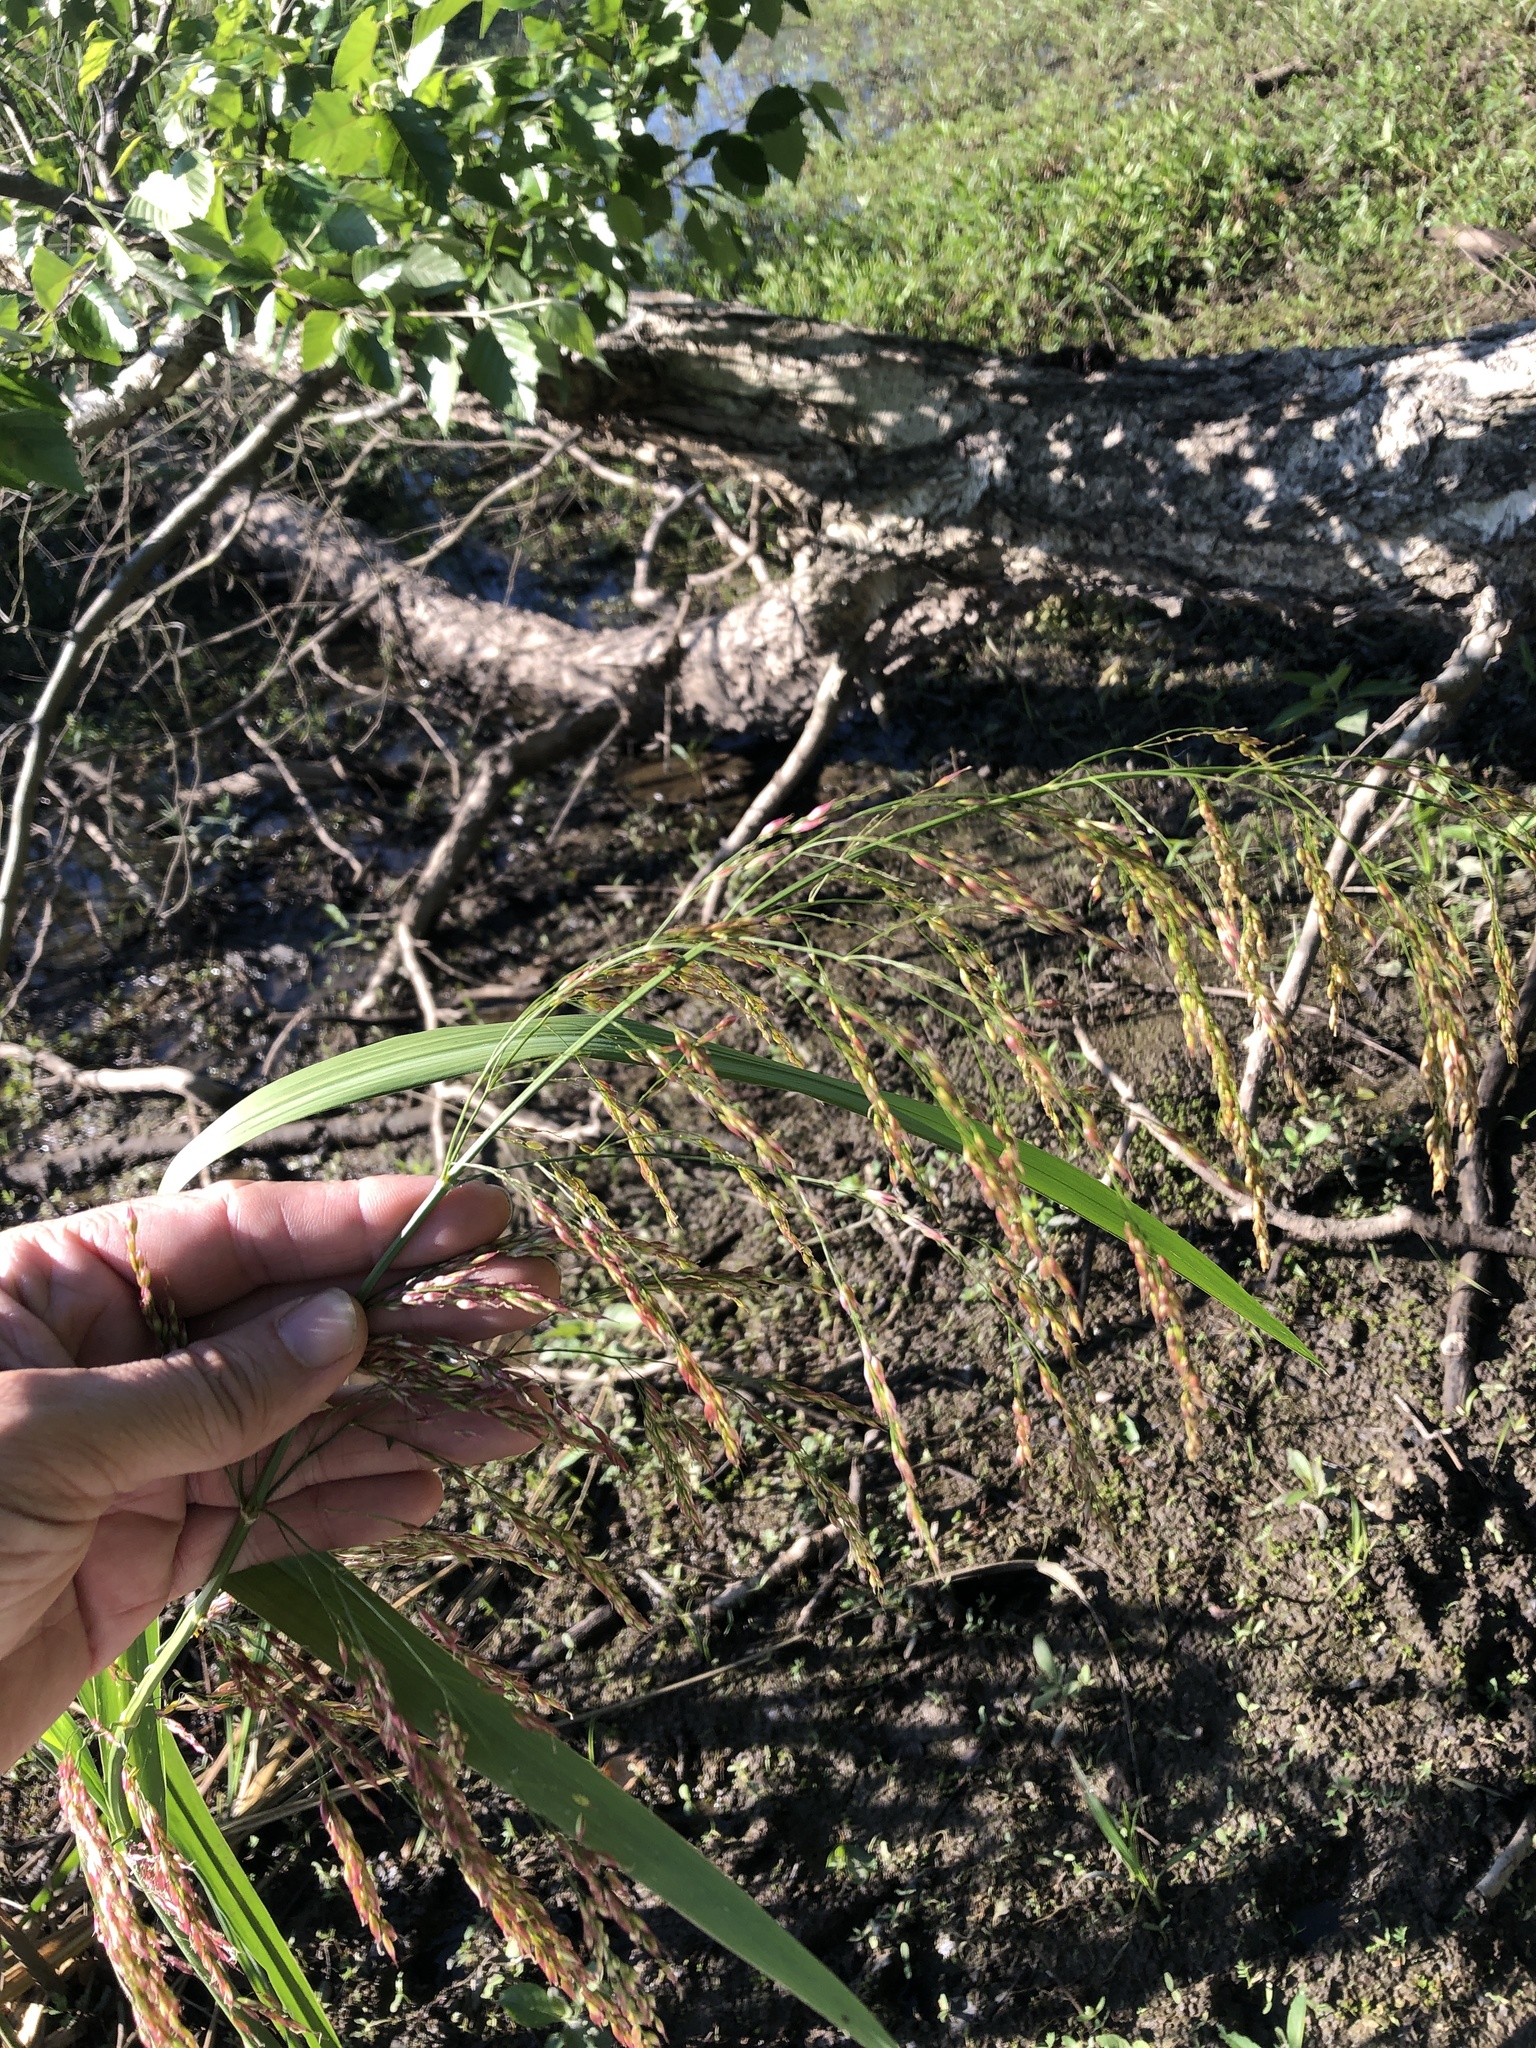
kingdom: Plantae
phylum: Tracheophyta
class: Liliopsida
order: Poales
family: Poaceae
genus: Zizaniopsis
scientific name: Zizaniopsis miliacea
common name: Giant-cutgrass
